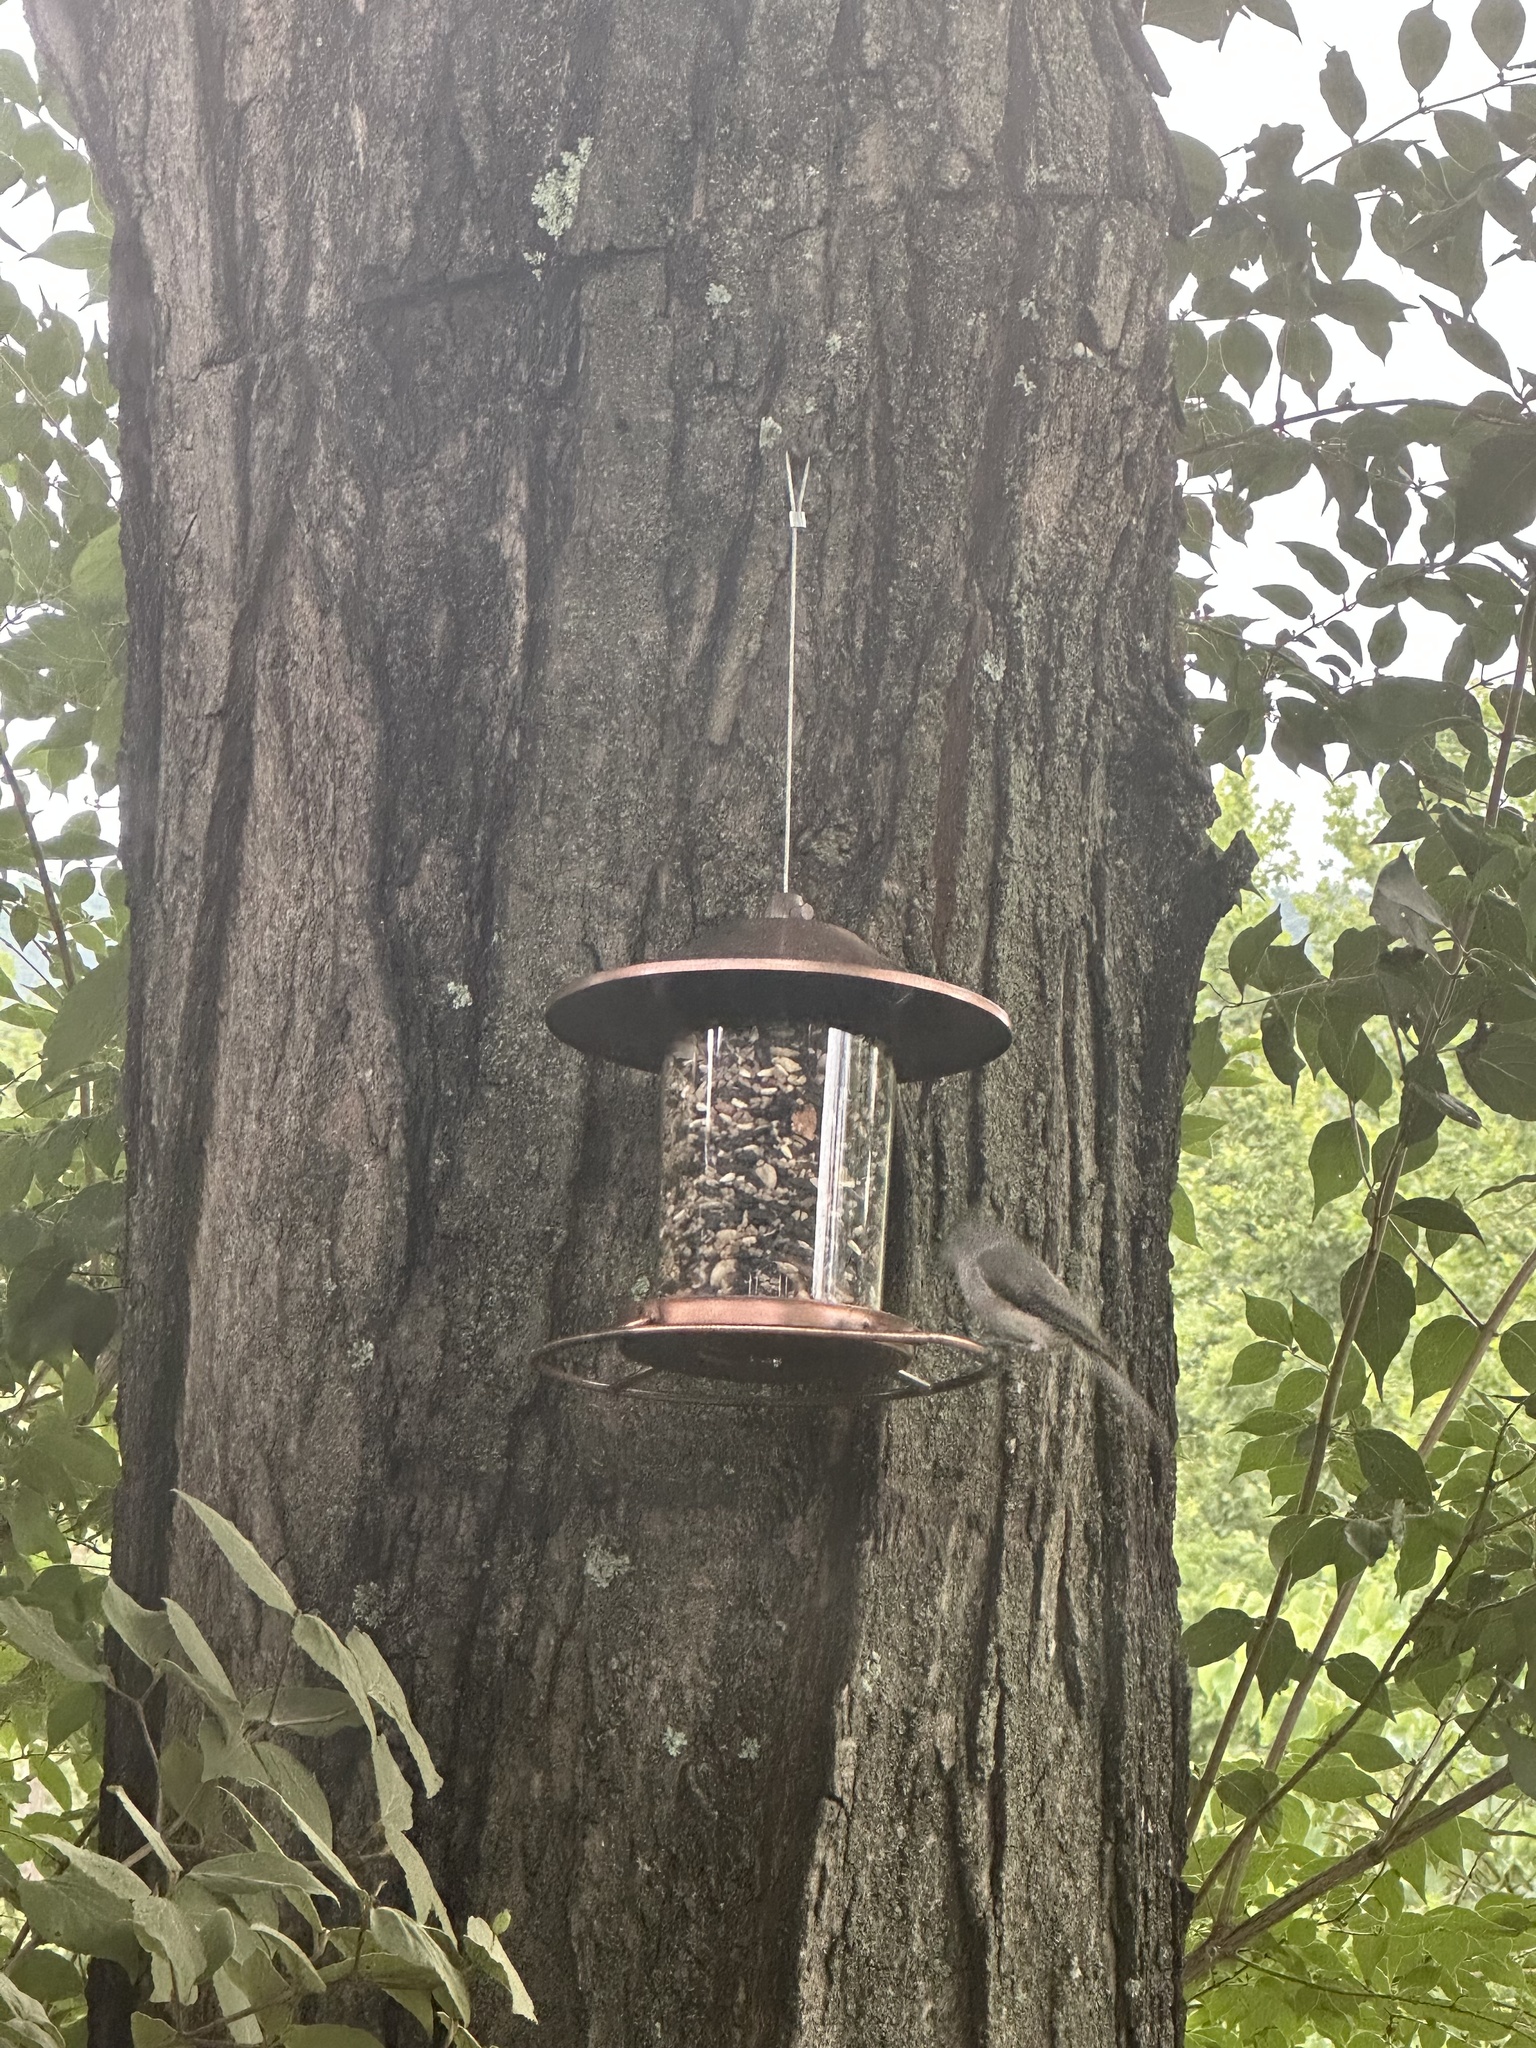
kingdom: Animalia
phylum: Chordata
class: Aves
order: Passeriformes
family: Paridae
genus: Baeolophus
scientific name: Baeolophus bicolor
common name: Tufted titmouse
